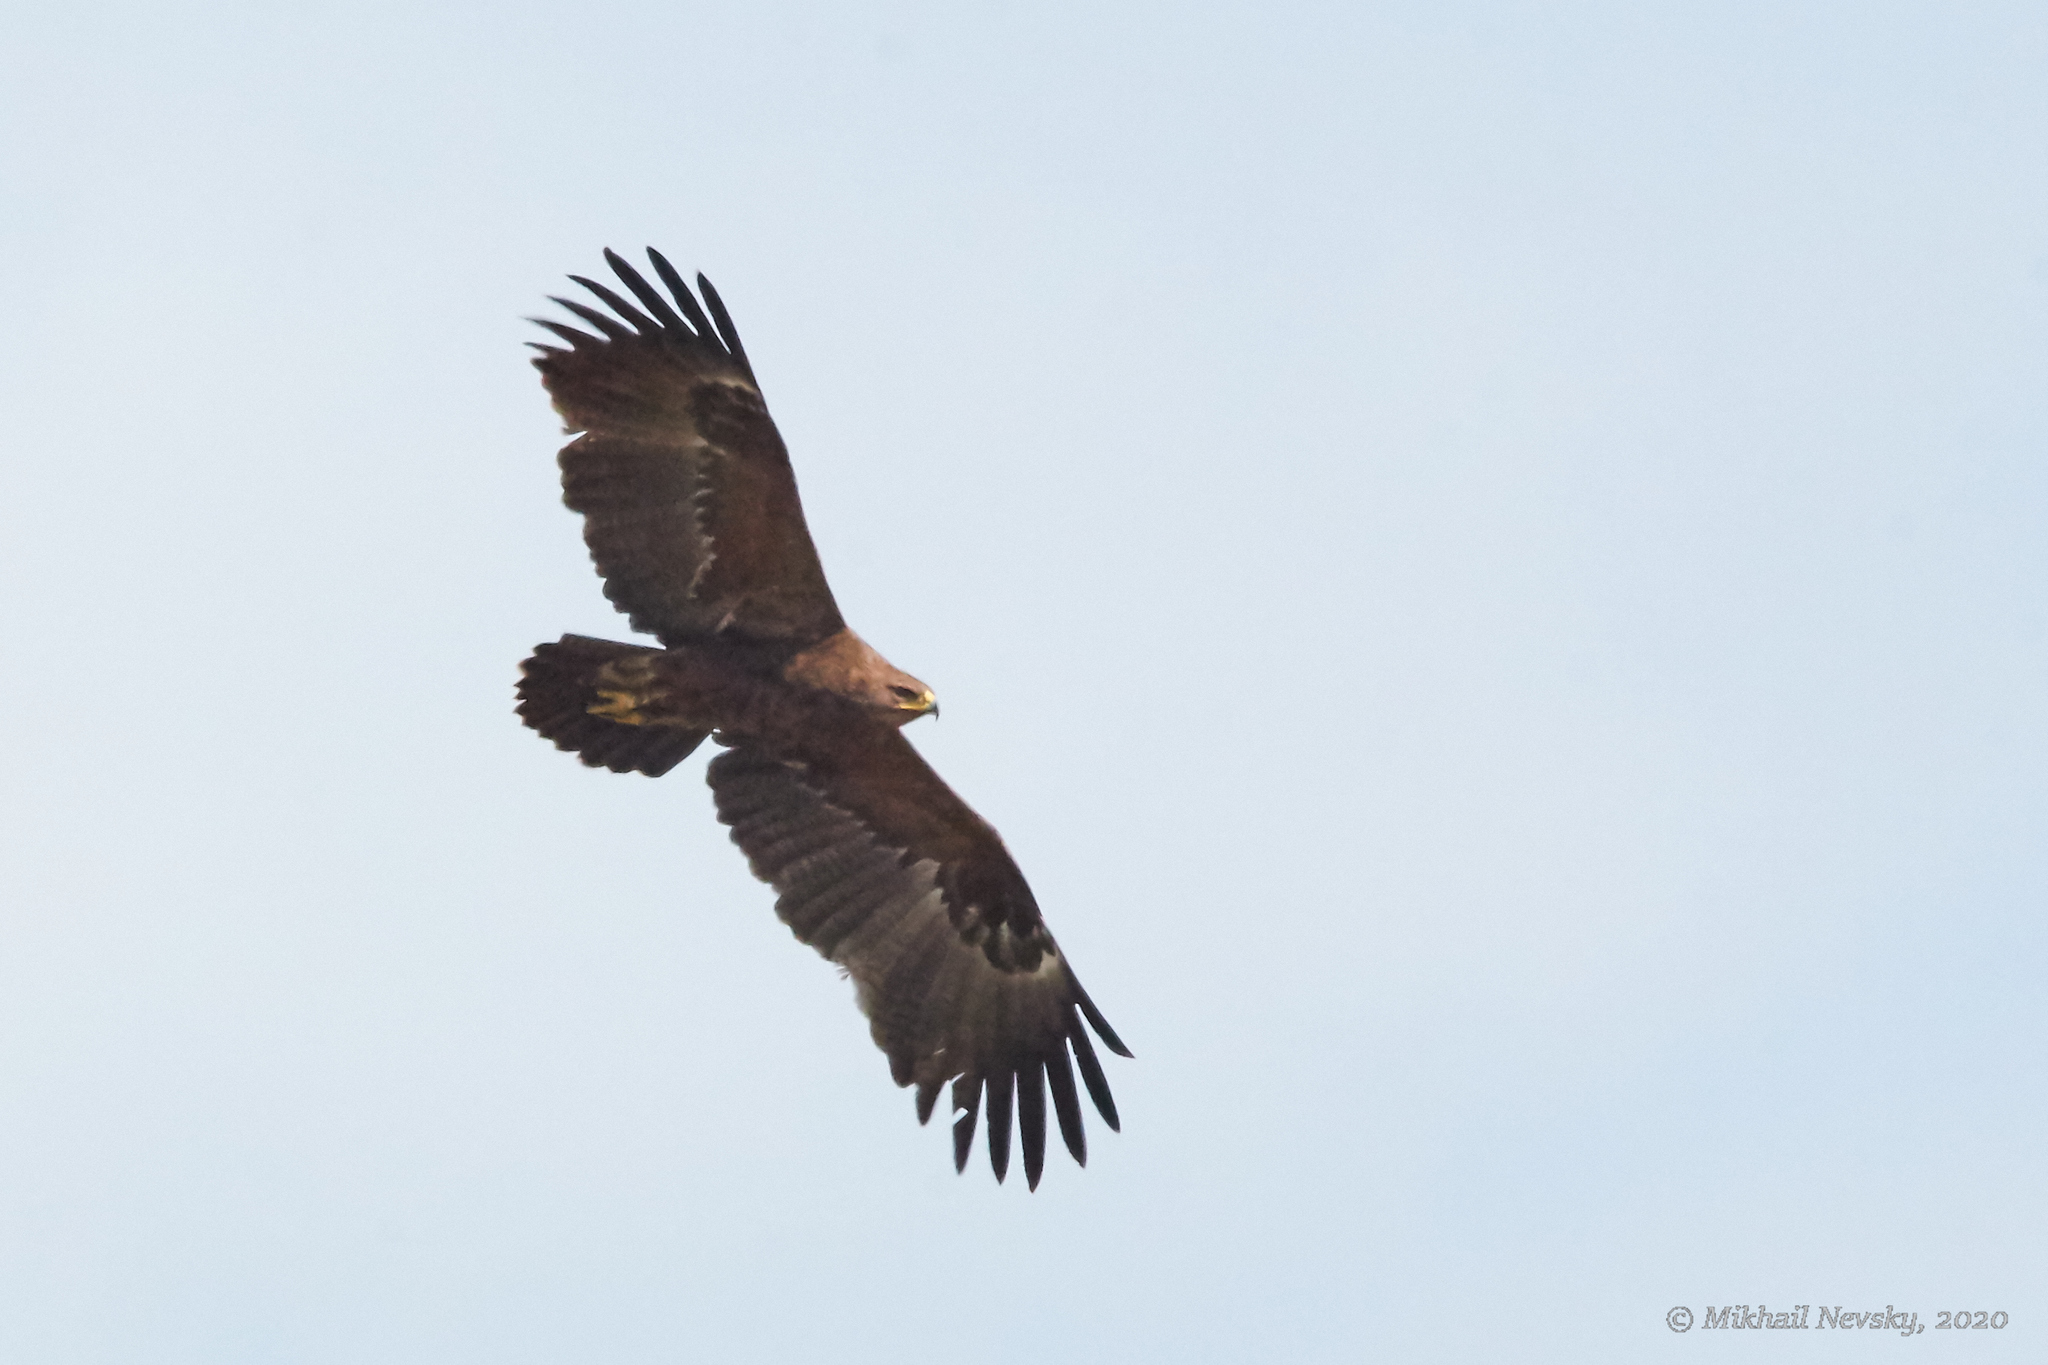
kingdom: Animalia
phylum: Chordata
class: Aves
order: Accipitriformes
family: Accipitridae
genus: Aquila
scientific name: Aquila pomarina
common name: Lesser spotted eagle
